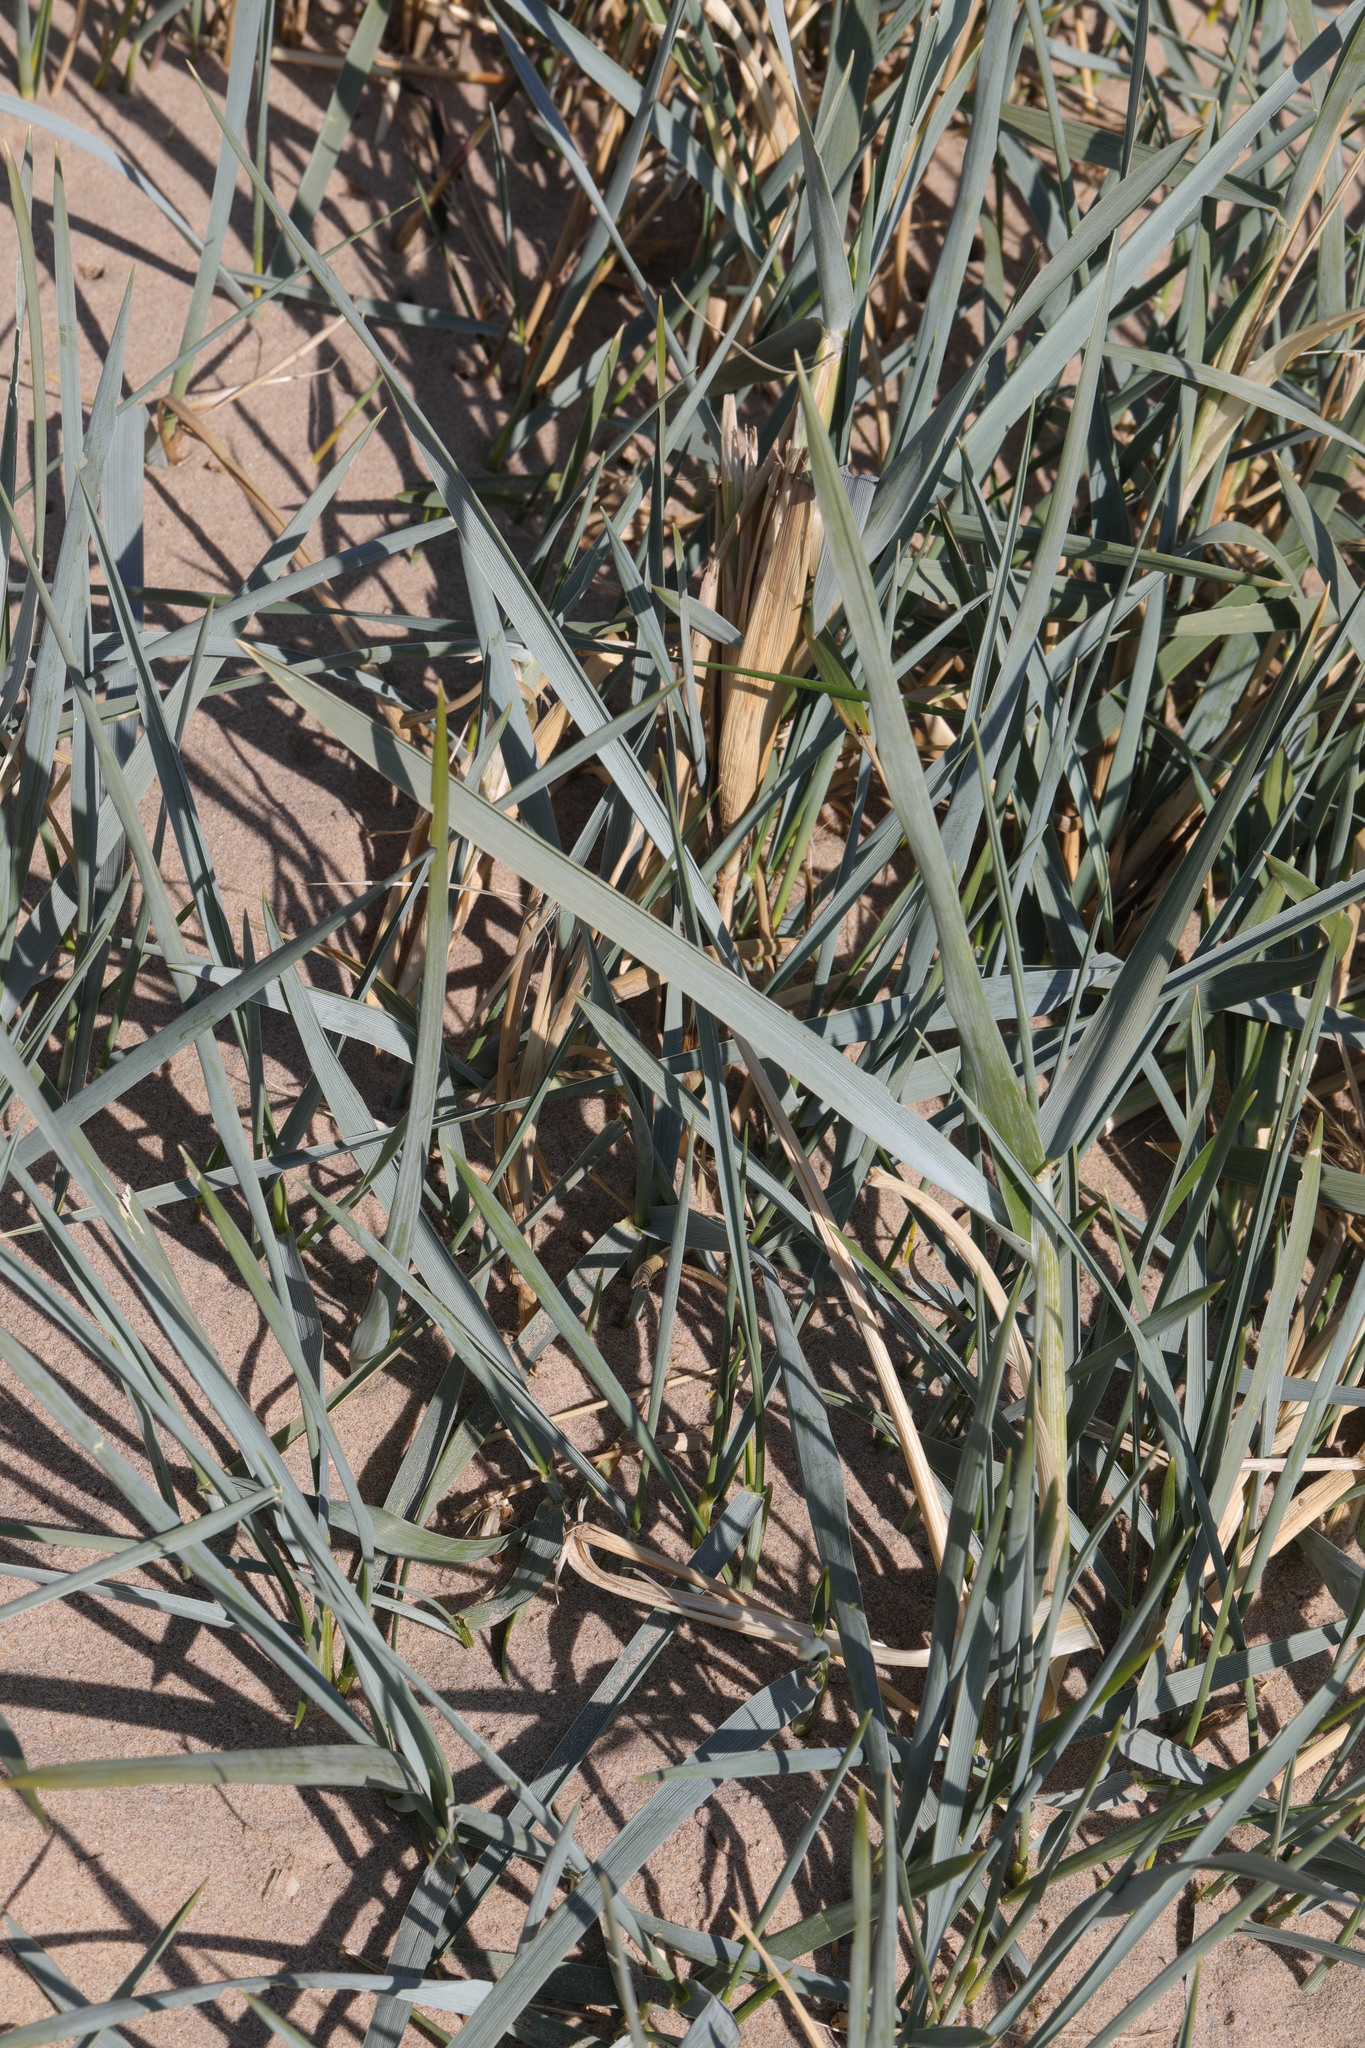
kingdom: Plantae
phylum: Tracheophyta
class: Liliopsida
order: Poales
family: Poaceae
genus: Leymus
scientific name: Leymus arenarius
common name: Lyme-grass
